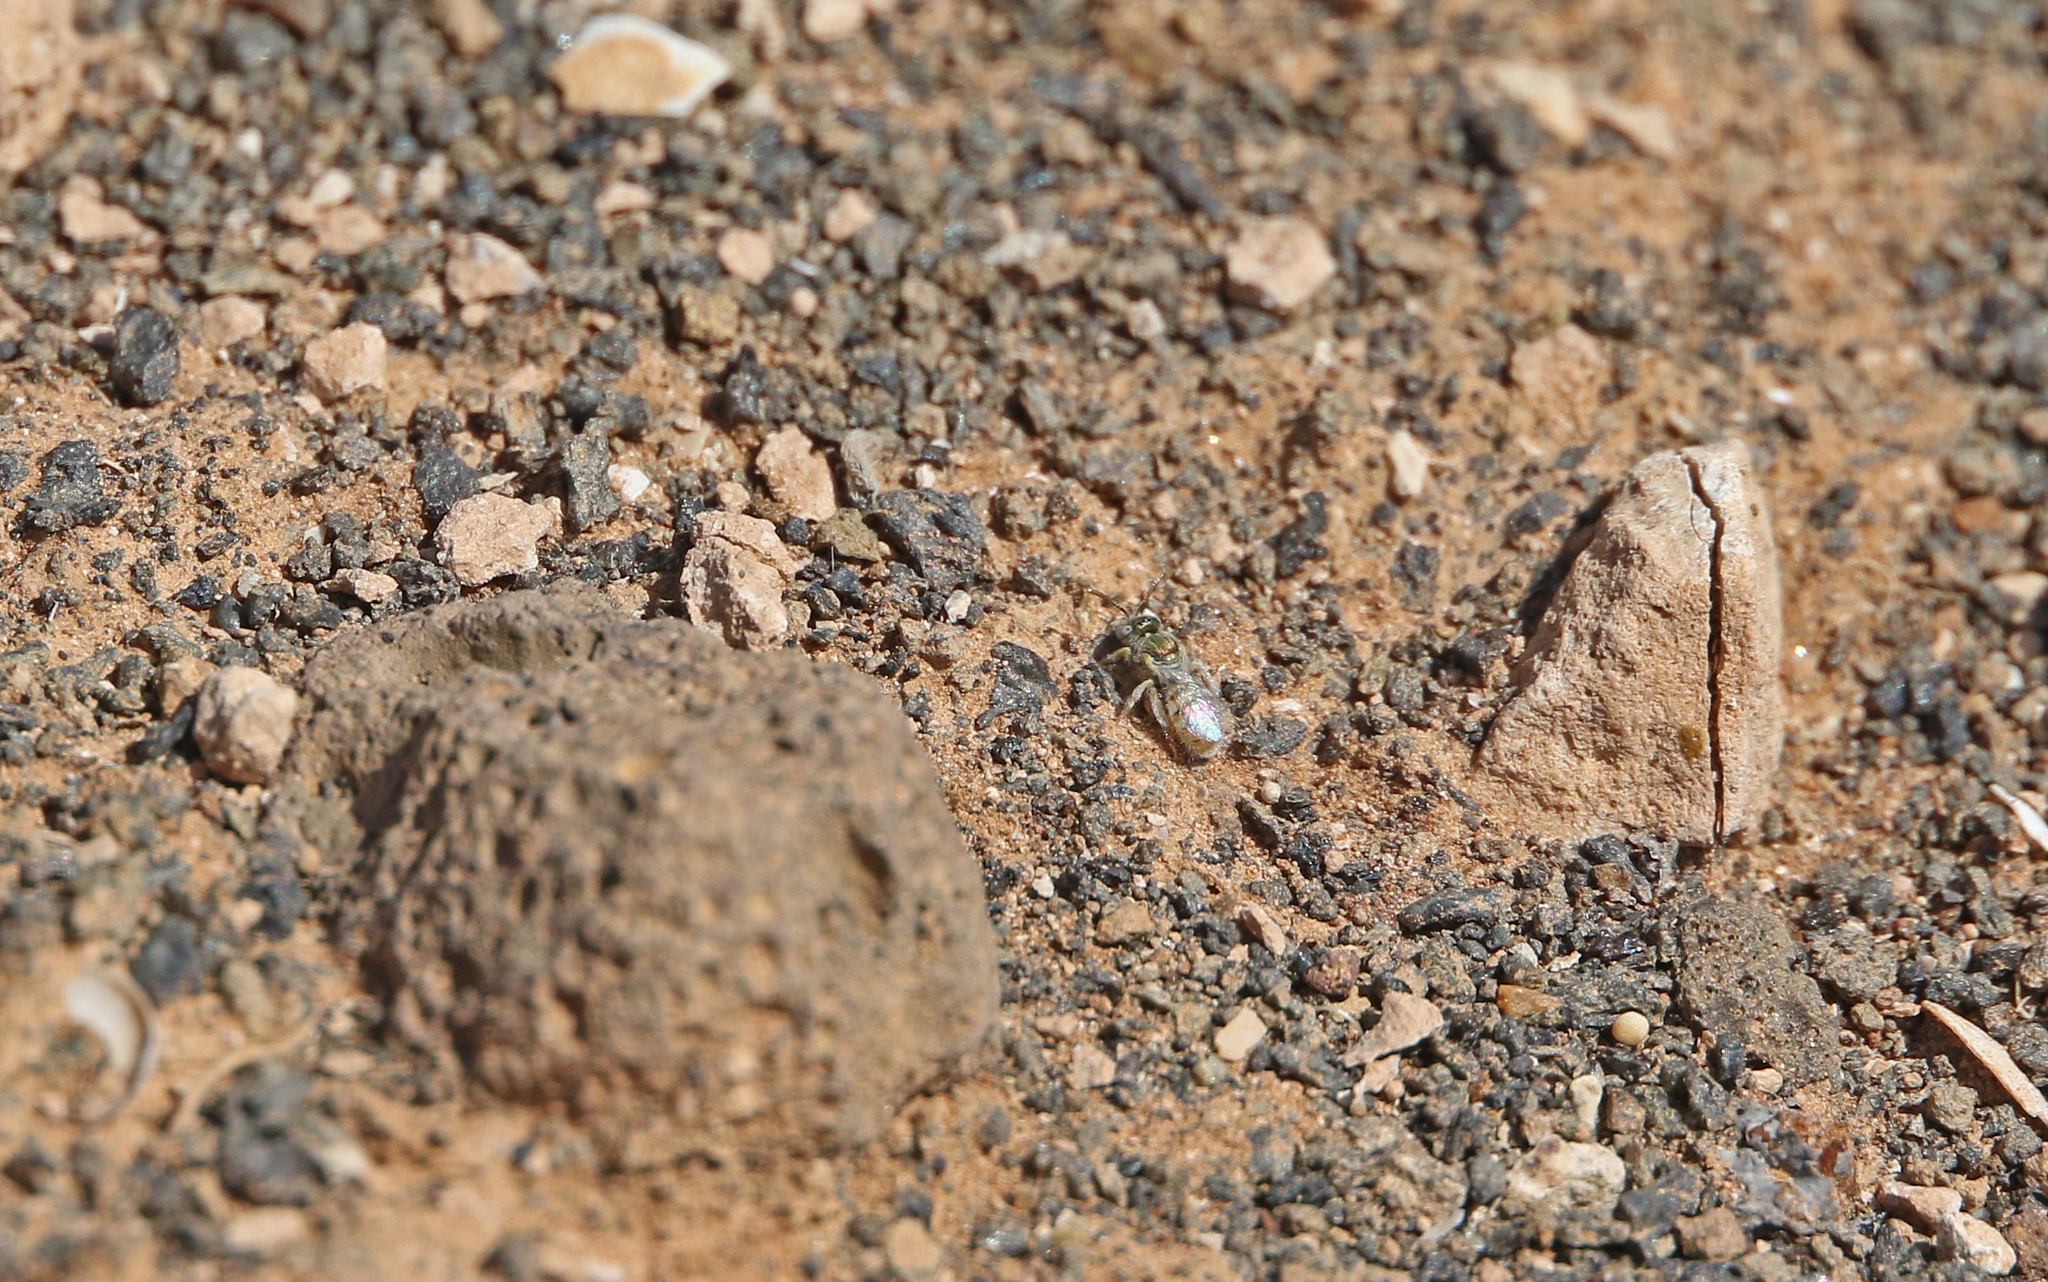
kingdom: Animalia
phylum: Arthropoda
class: Insecta
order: Hymenoptera
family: Halictidae
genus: Nomioides
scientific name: Nomioides deceptor
